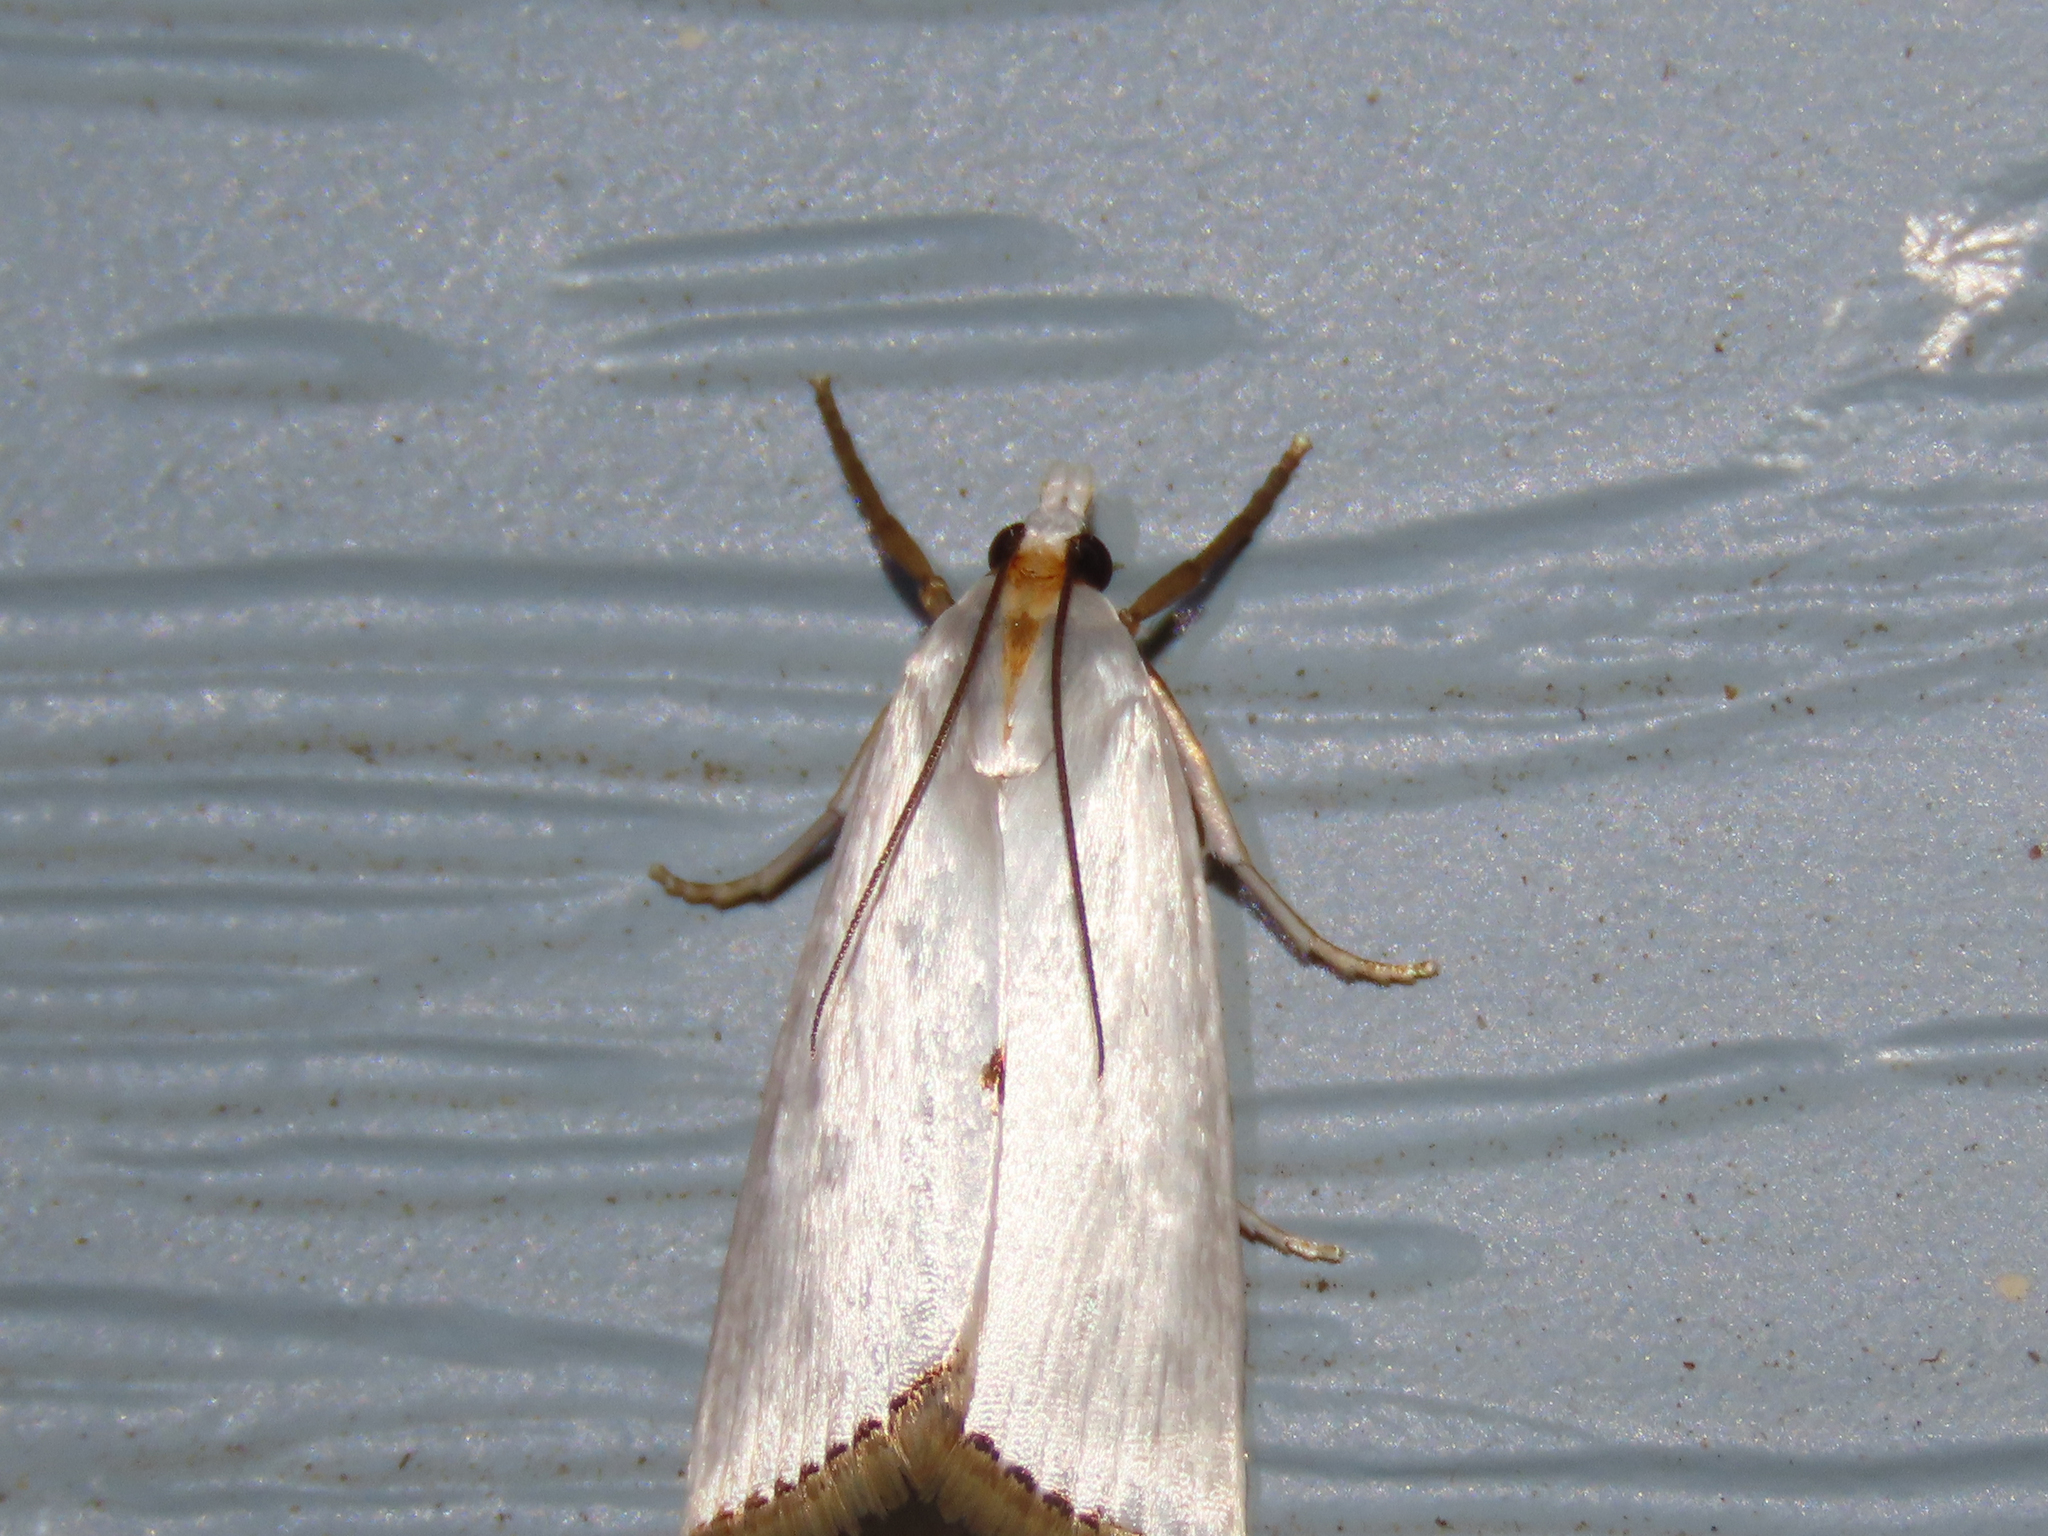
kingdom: Animalia
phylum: Arthropoda
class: Insecta
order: Lepidoptera
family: Crambidae
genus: Argyria
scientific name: Argyria nivalis
